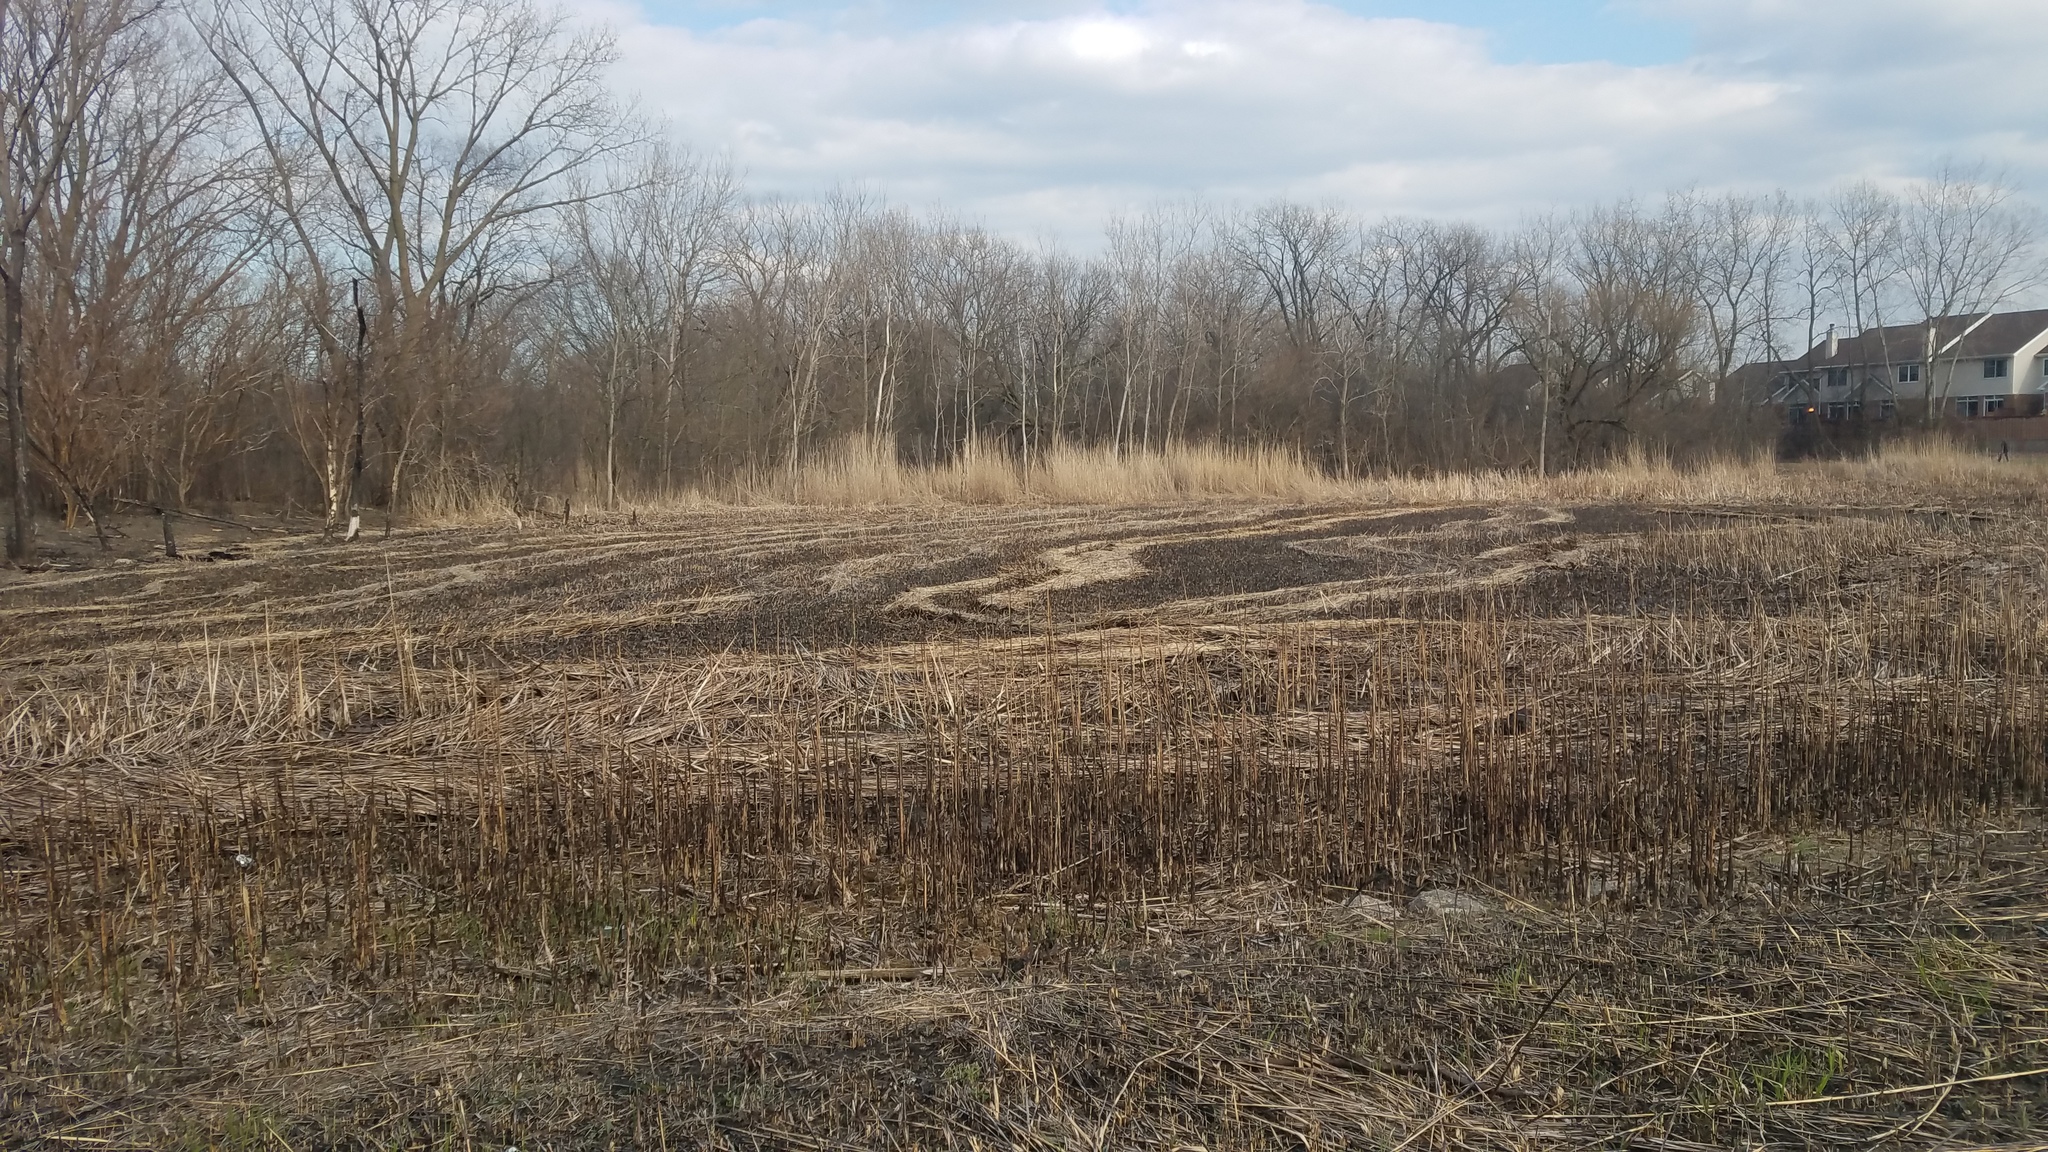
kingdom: Plantae
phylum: Tracheophyta
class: Liliopsida
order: Poales
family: Poaceae
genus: Phragmites
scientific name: Phragmites australis
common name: Common reed
